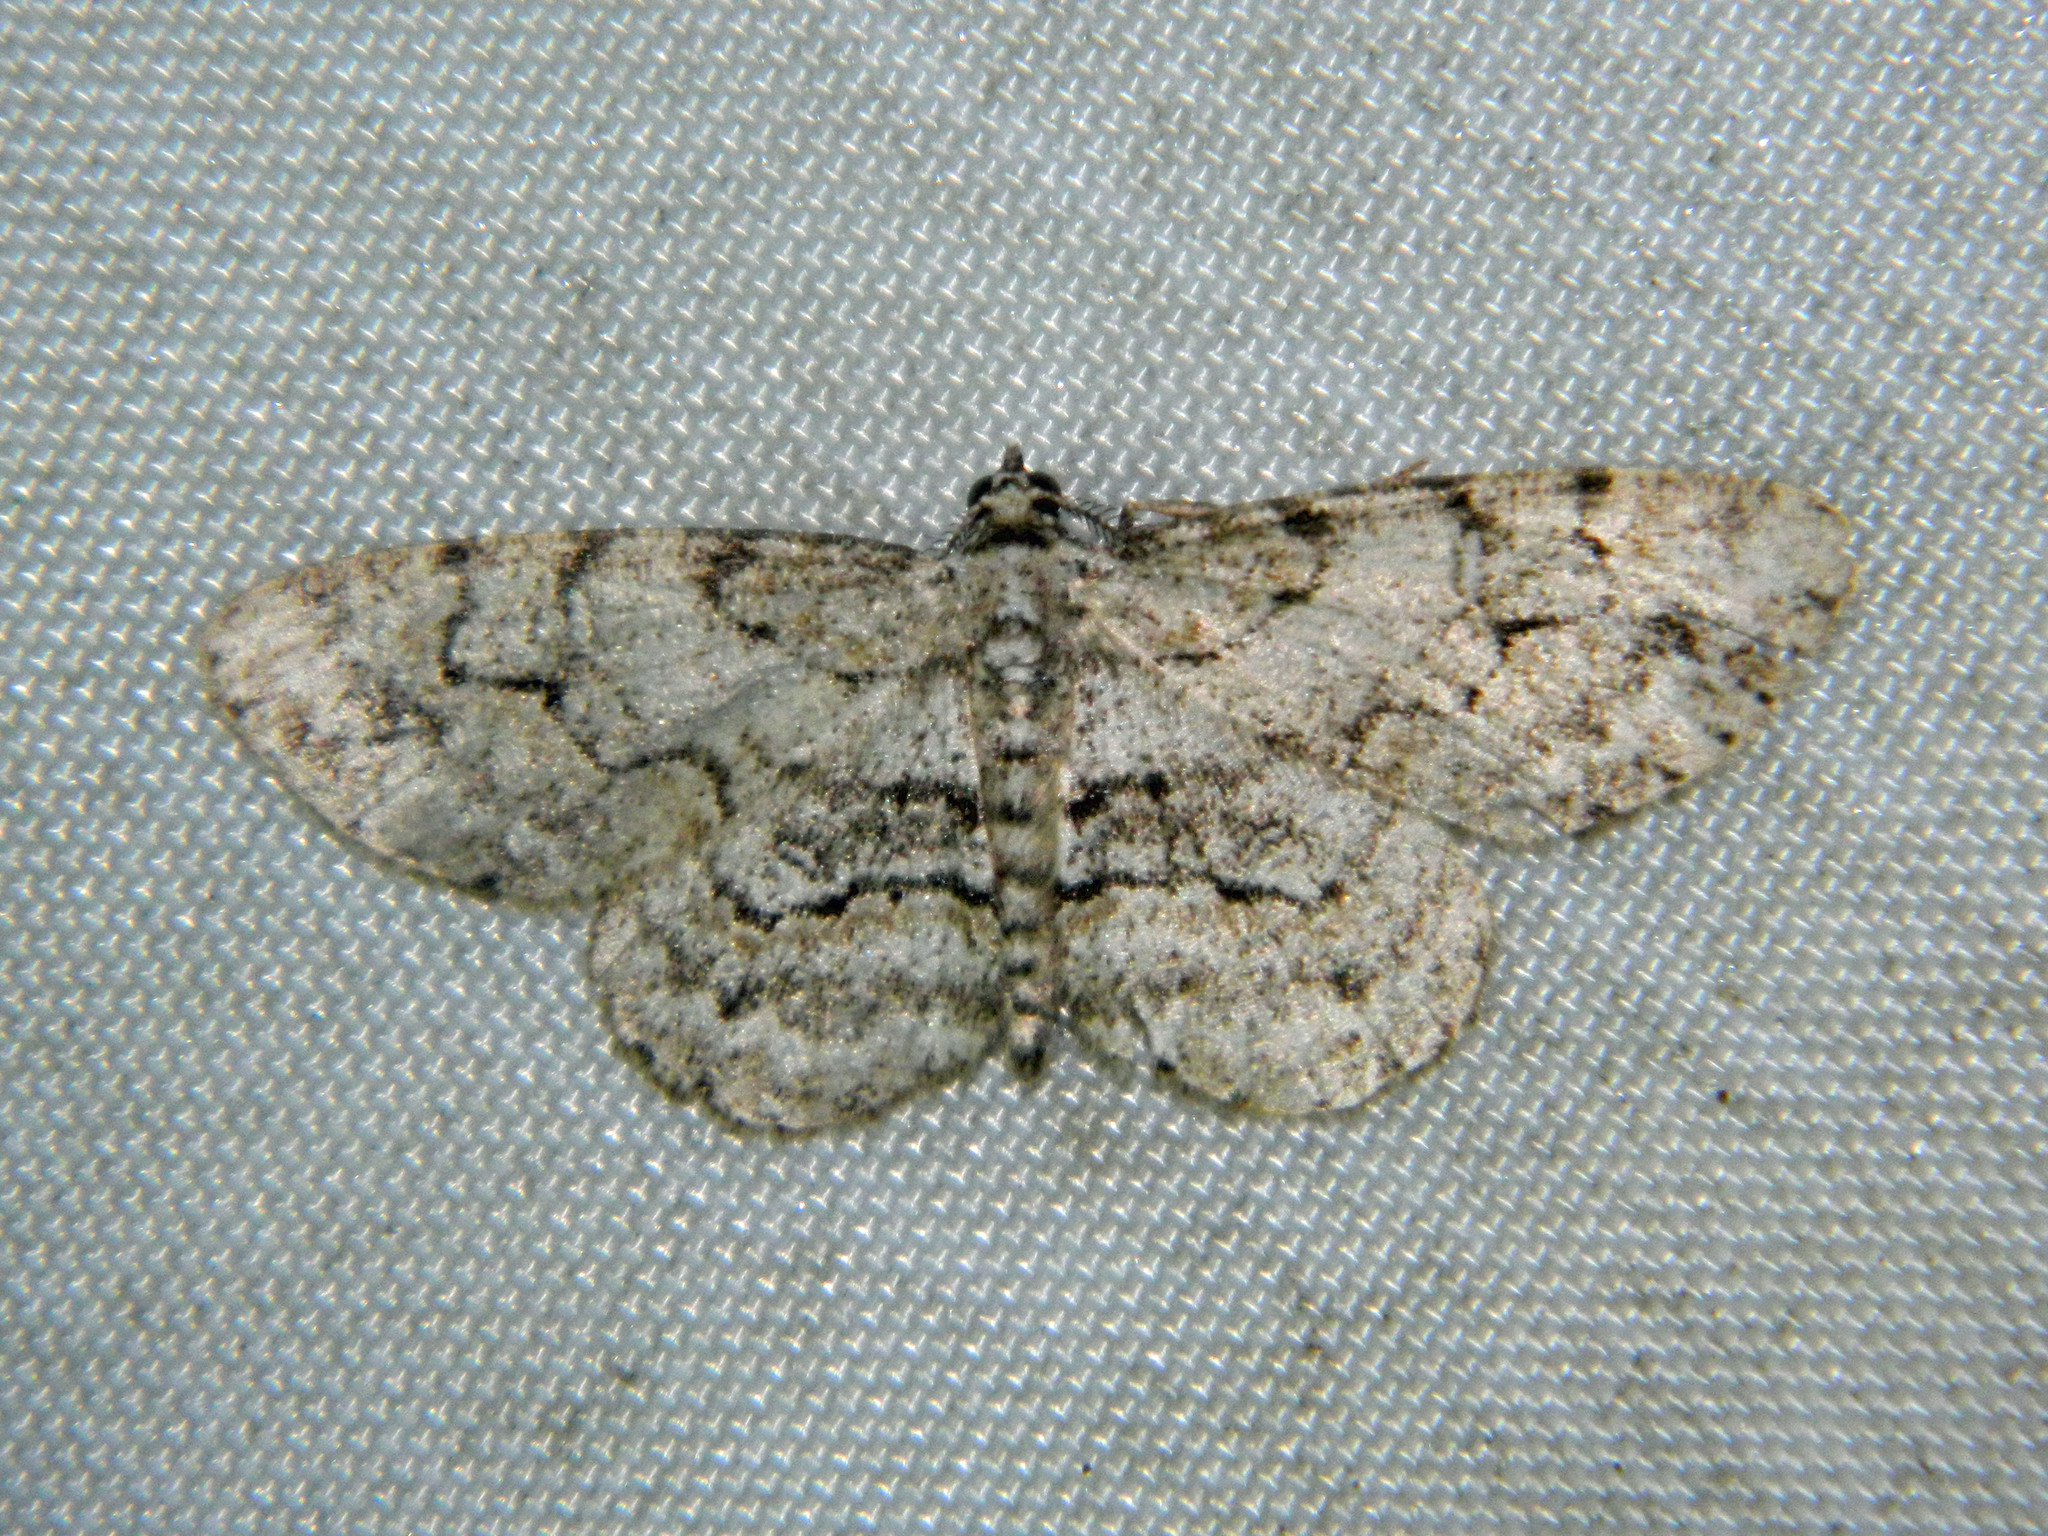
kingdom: Animalia
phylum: Arthropoda
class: Insecta
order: Lepidoptera
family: Geometridae
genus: Iridopsis
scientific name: Iridopsis ephyraria
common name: Pale-winged gray
